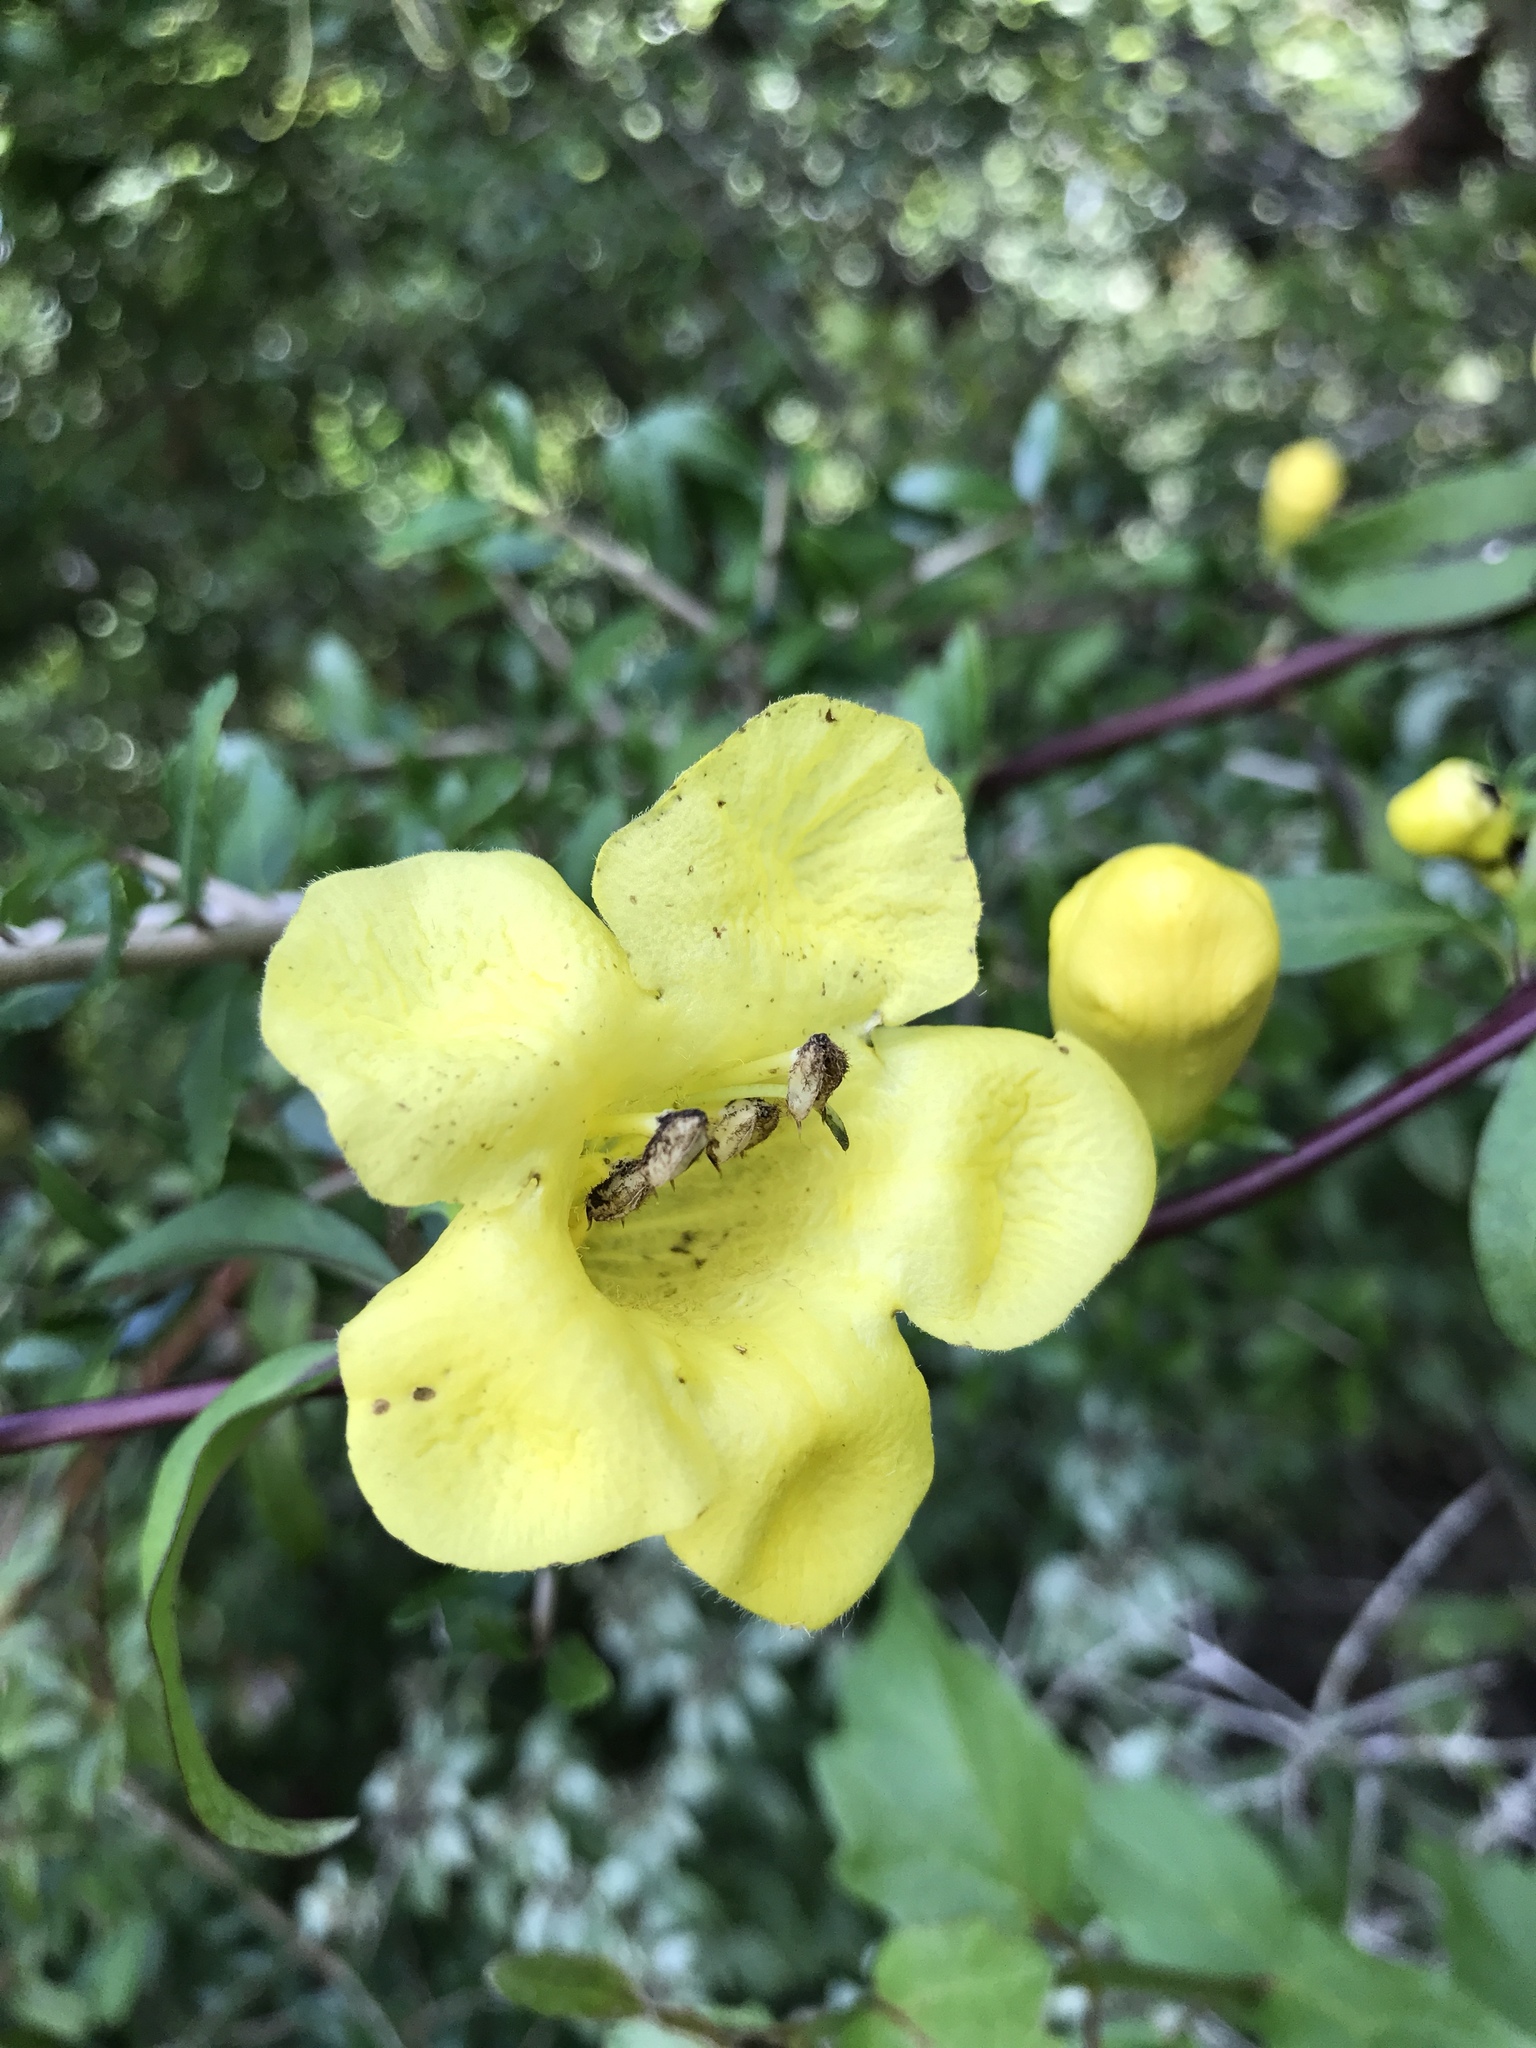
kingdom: Plantae
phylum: Tracheophyta
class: Magnoliopsida
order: Lamiales
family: Orobanchaceae
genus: Aureolaria
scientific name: Aureolaria flava
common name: Smooth false foxglove
